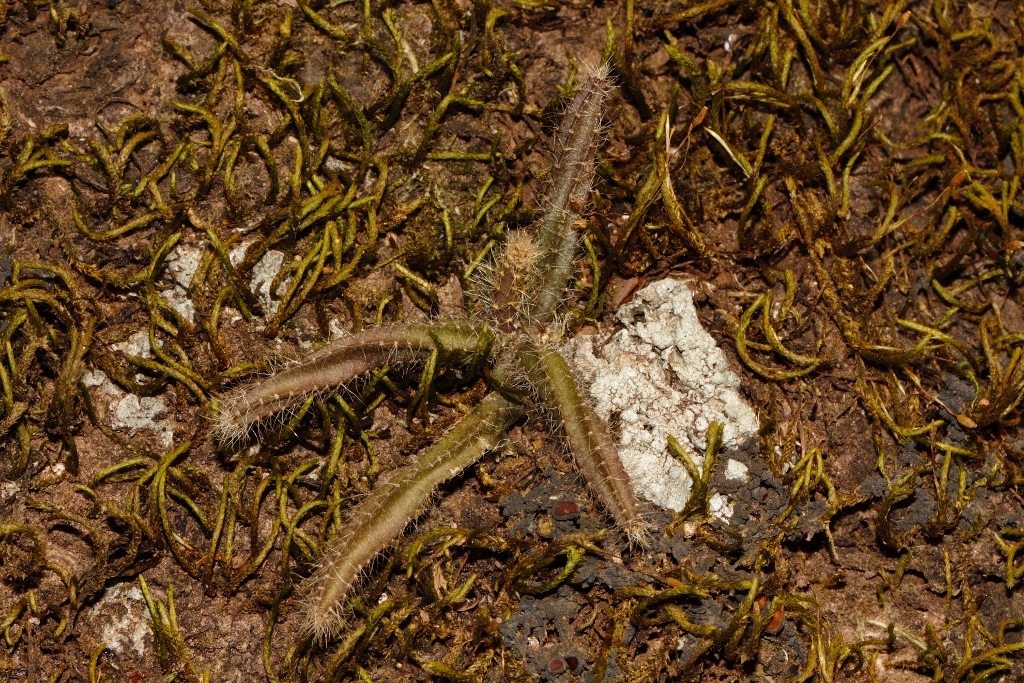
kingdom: Plantae
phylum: Tracheophyta
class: Magnoliopsida
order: Caryophyllales
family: Cactaceae
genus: Rhipsalis
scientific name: Rhipsalis baccifera
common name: Mistletoe cactus
